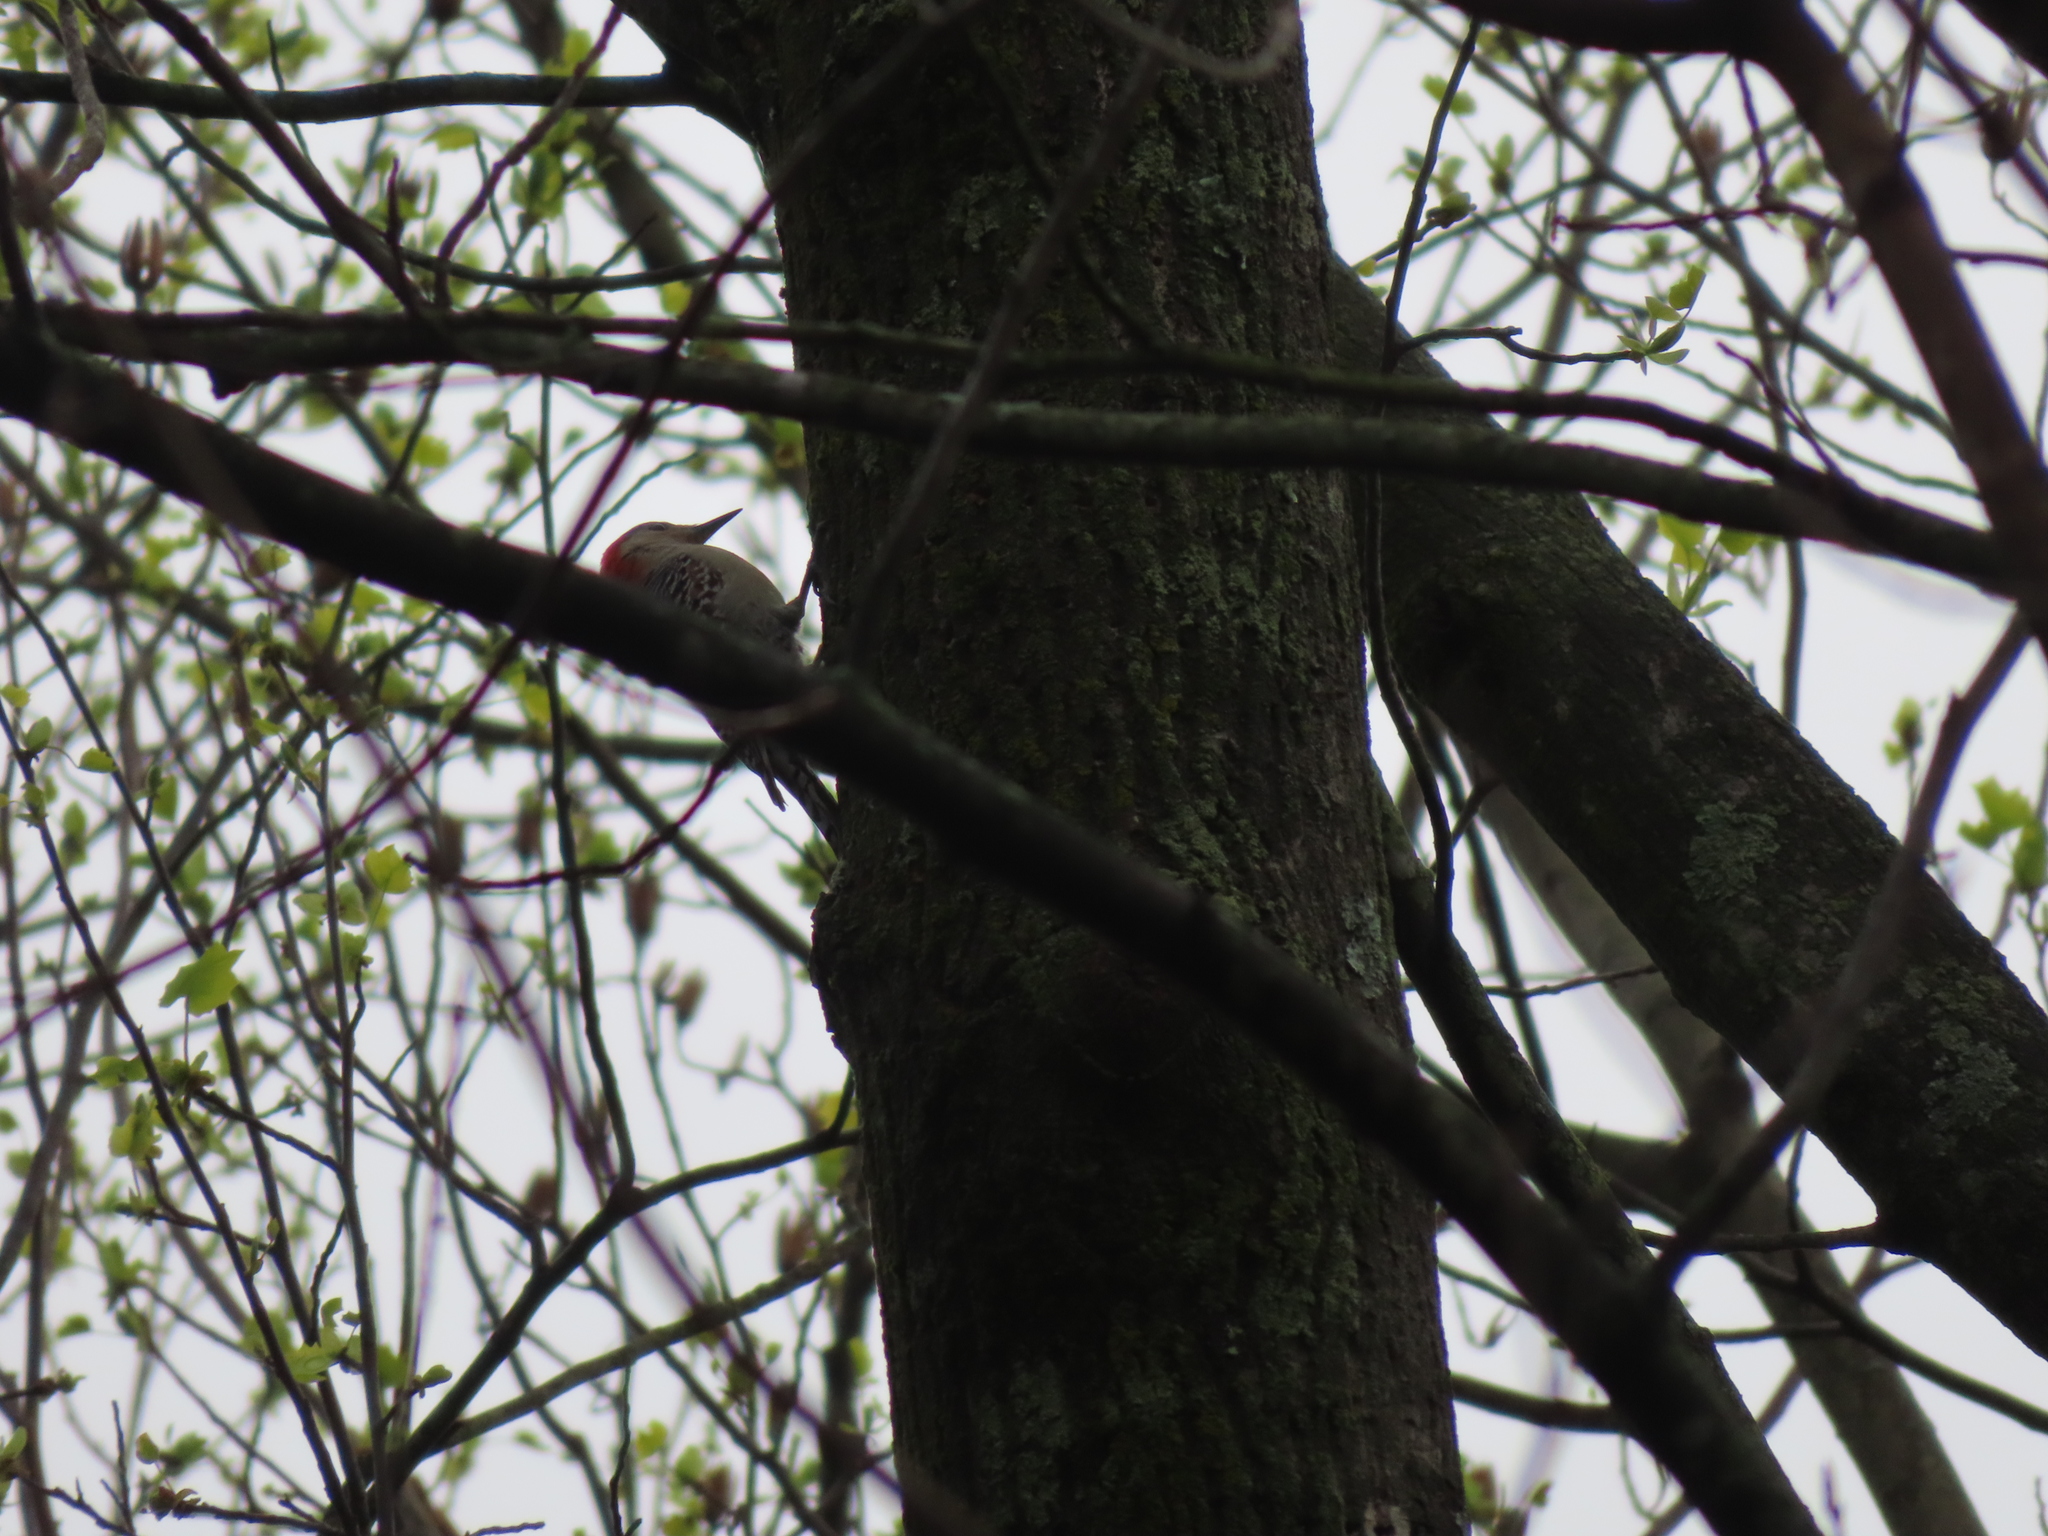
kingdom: Animalia
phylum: Chordata
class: Aves
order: Piciformes
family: Picidae
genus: Melanerpes
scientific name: Melanerpes carolinus
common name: Red-bellied woodpecker
